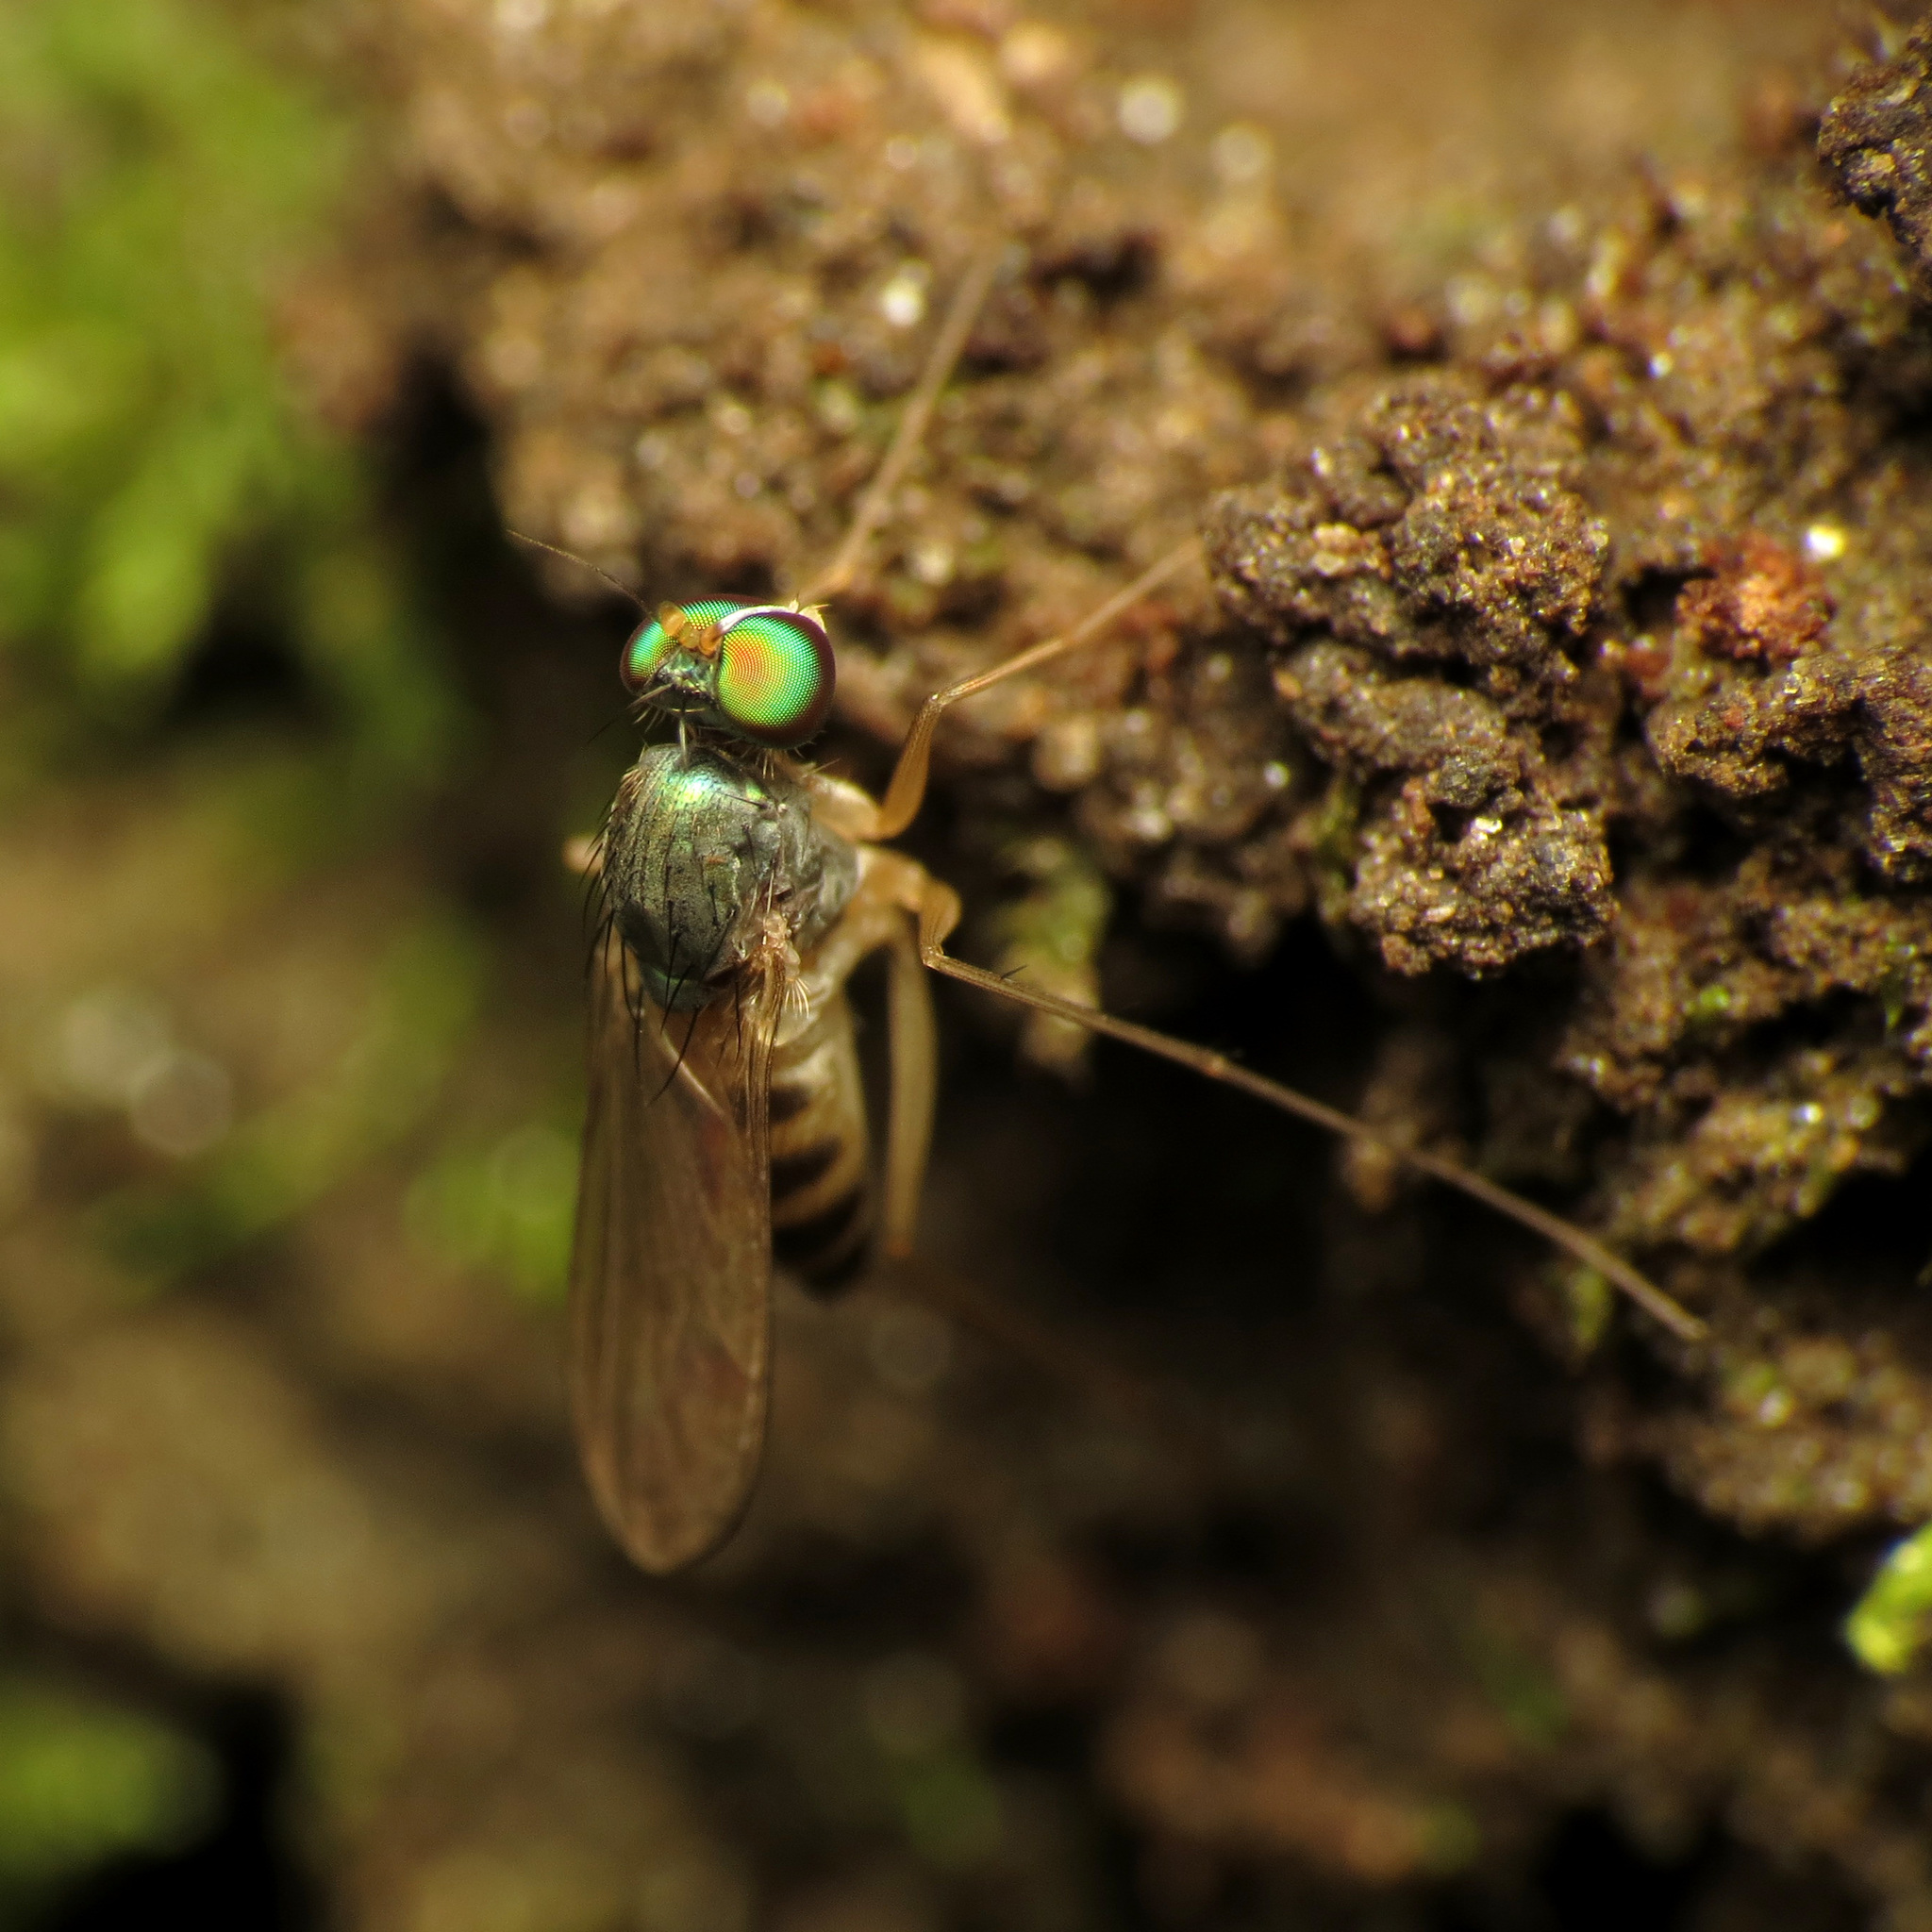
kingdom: Animalia
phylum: Arthropoda
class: Insecta
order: Diptera
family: Dolichopodidae
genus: Neurigona
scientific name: Neurigona deformis
